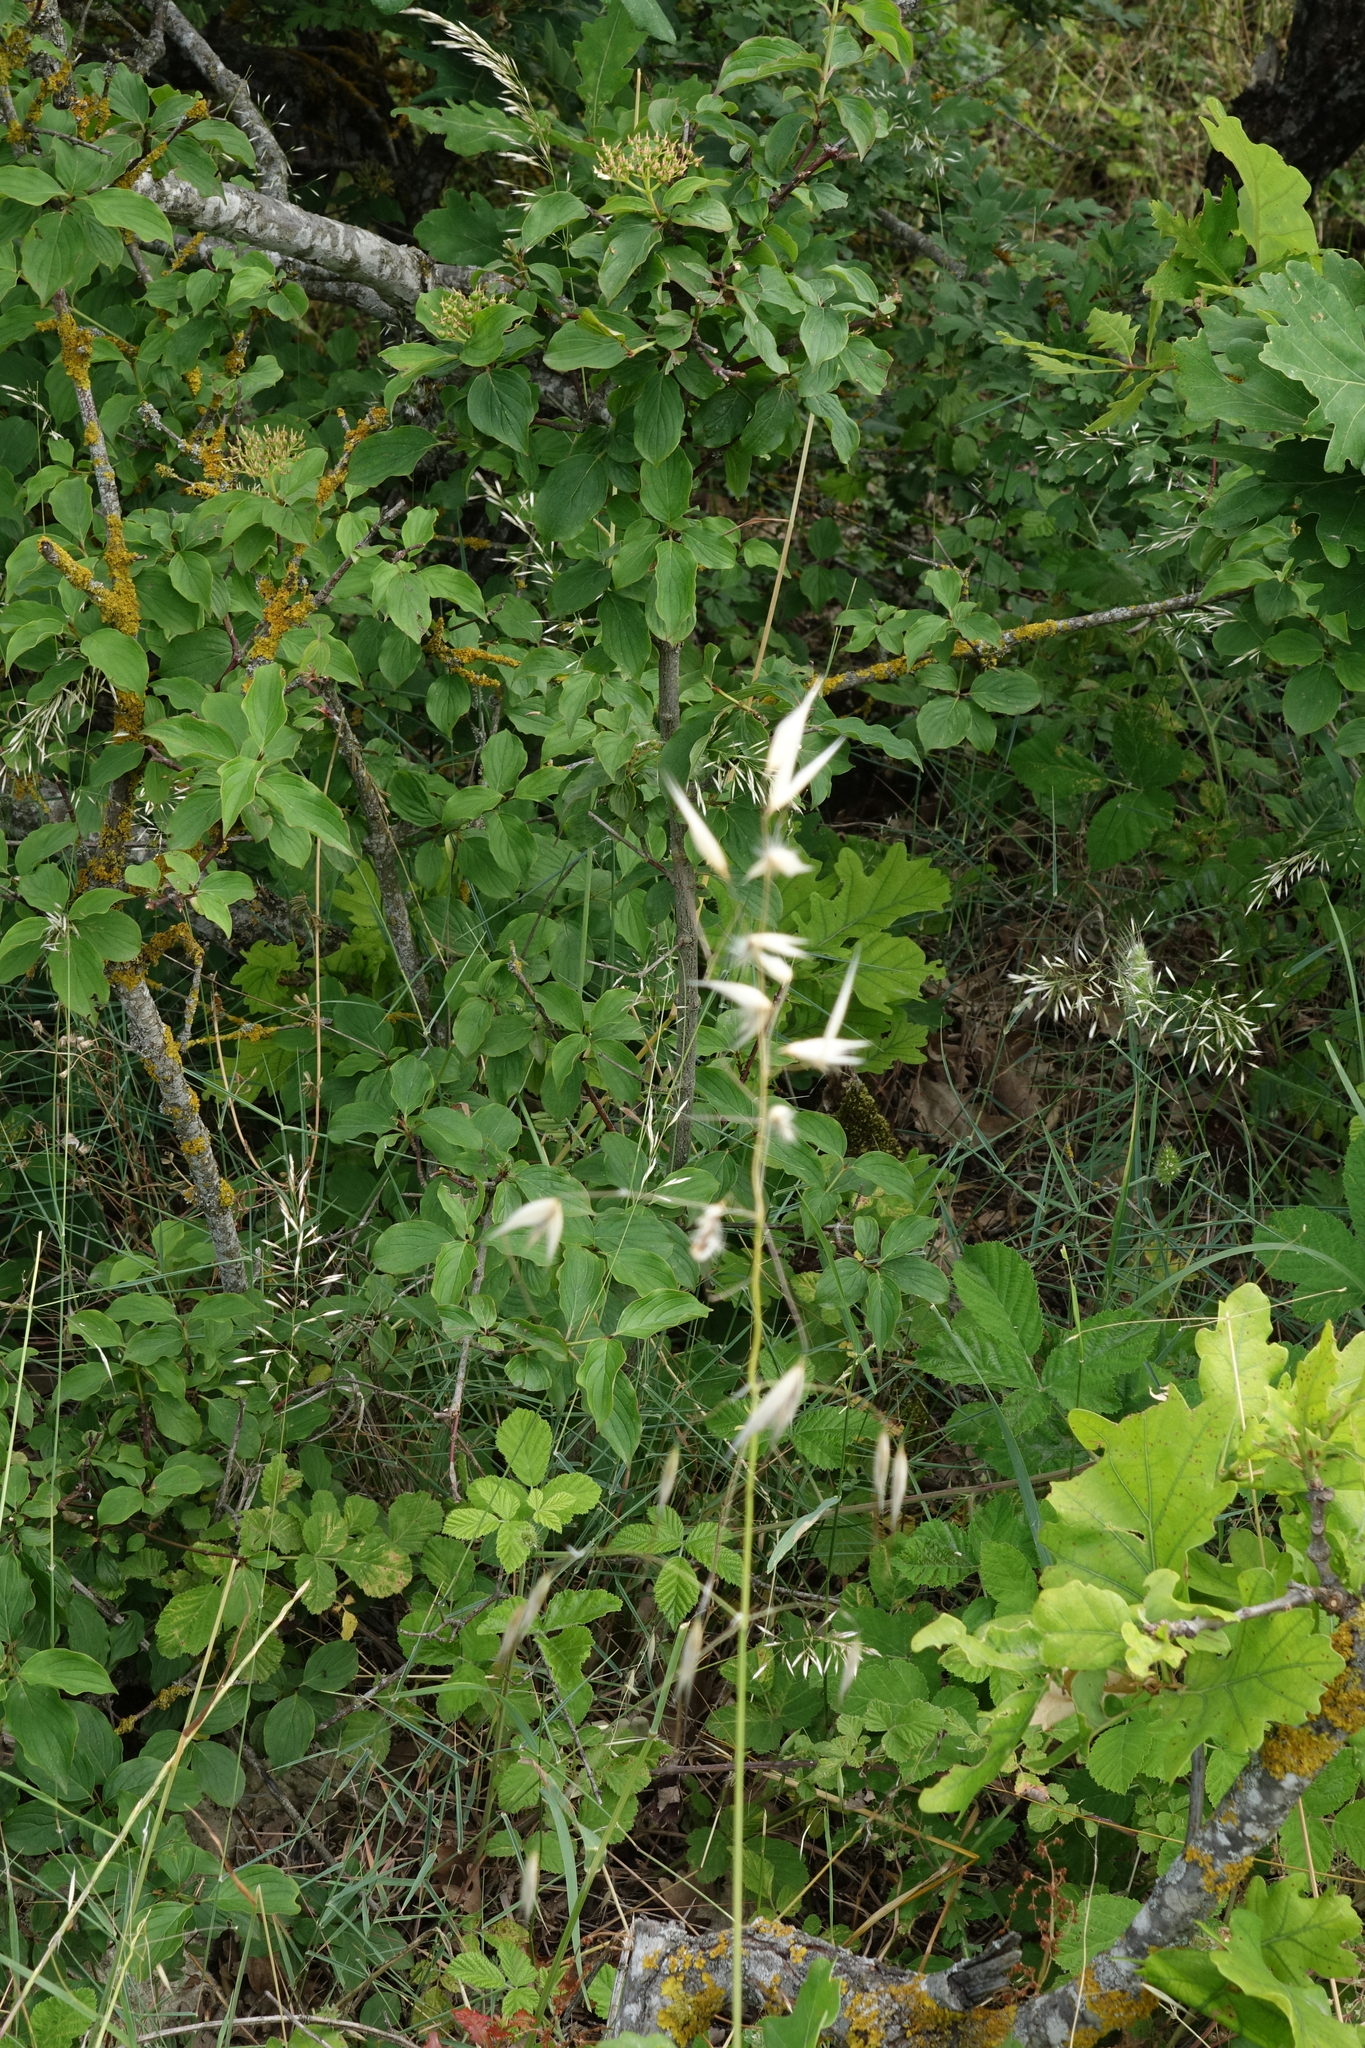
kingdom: Plantae
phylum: Tracheophyta
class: Magnoliopsida
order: Cornales
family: Cornaceae
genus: Cornus
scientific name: Cornus sanguinea
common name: Dogwood
